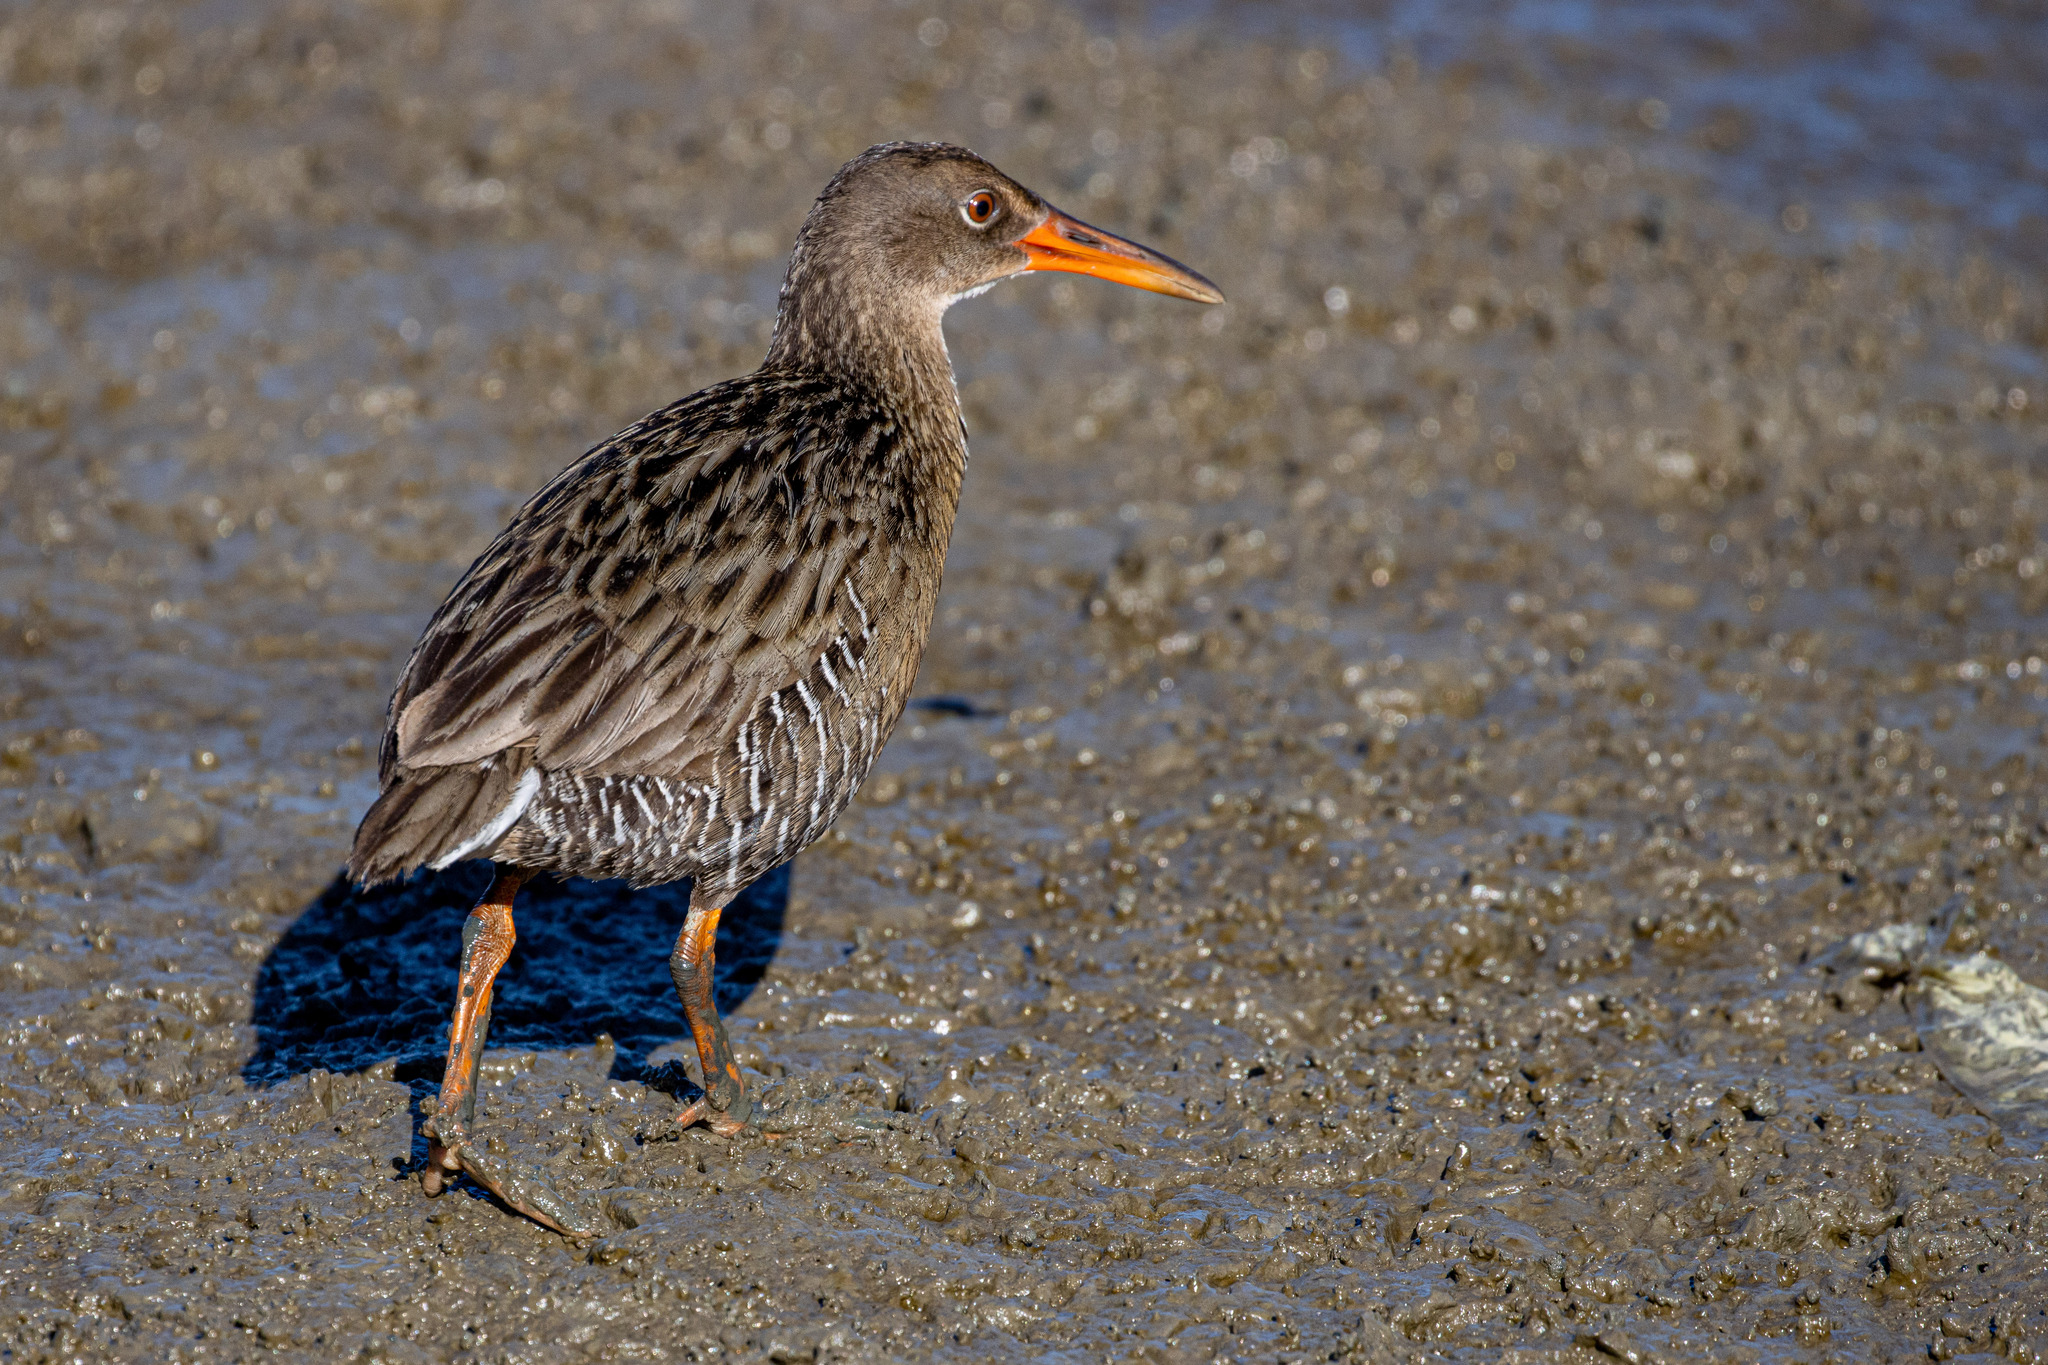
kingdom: Animalia
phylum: Chordata
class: Aves
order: Gruiformes
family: Rallidae
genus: Rallus
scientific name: Rallus longirostris
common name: Mangrove rail
